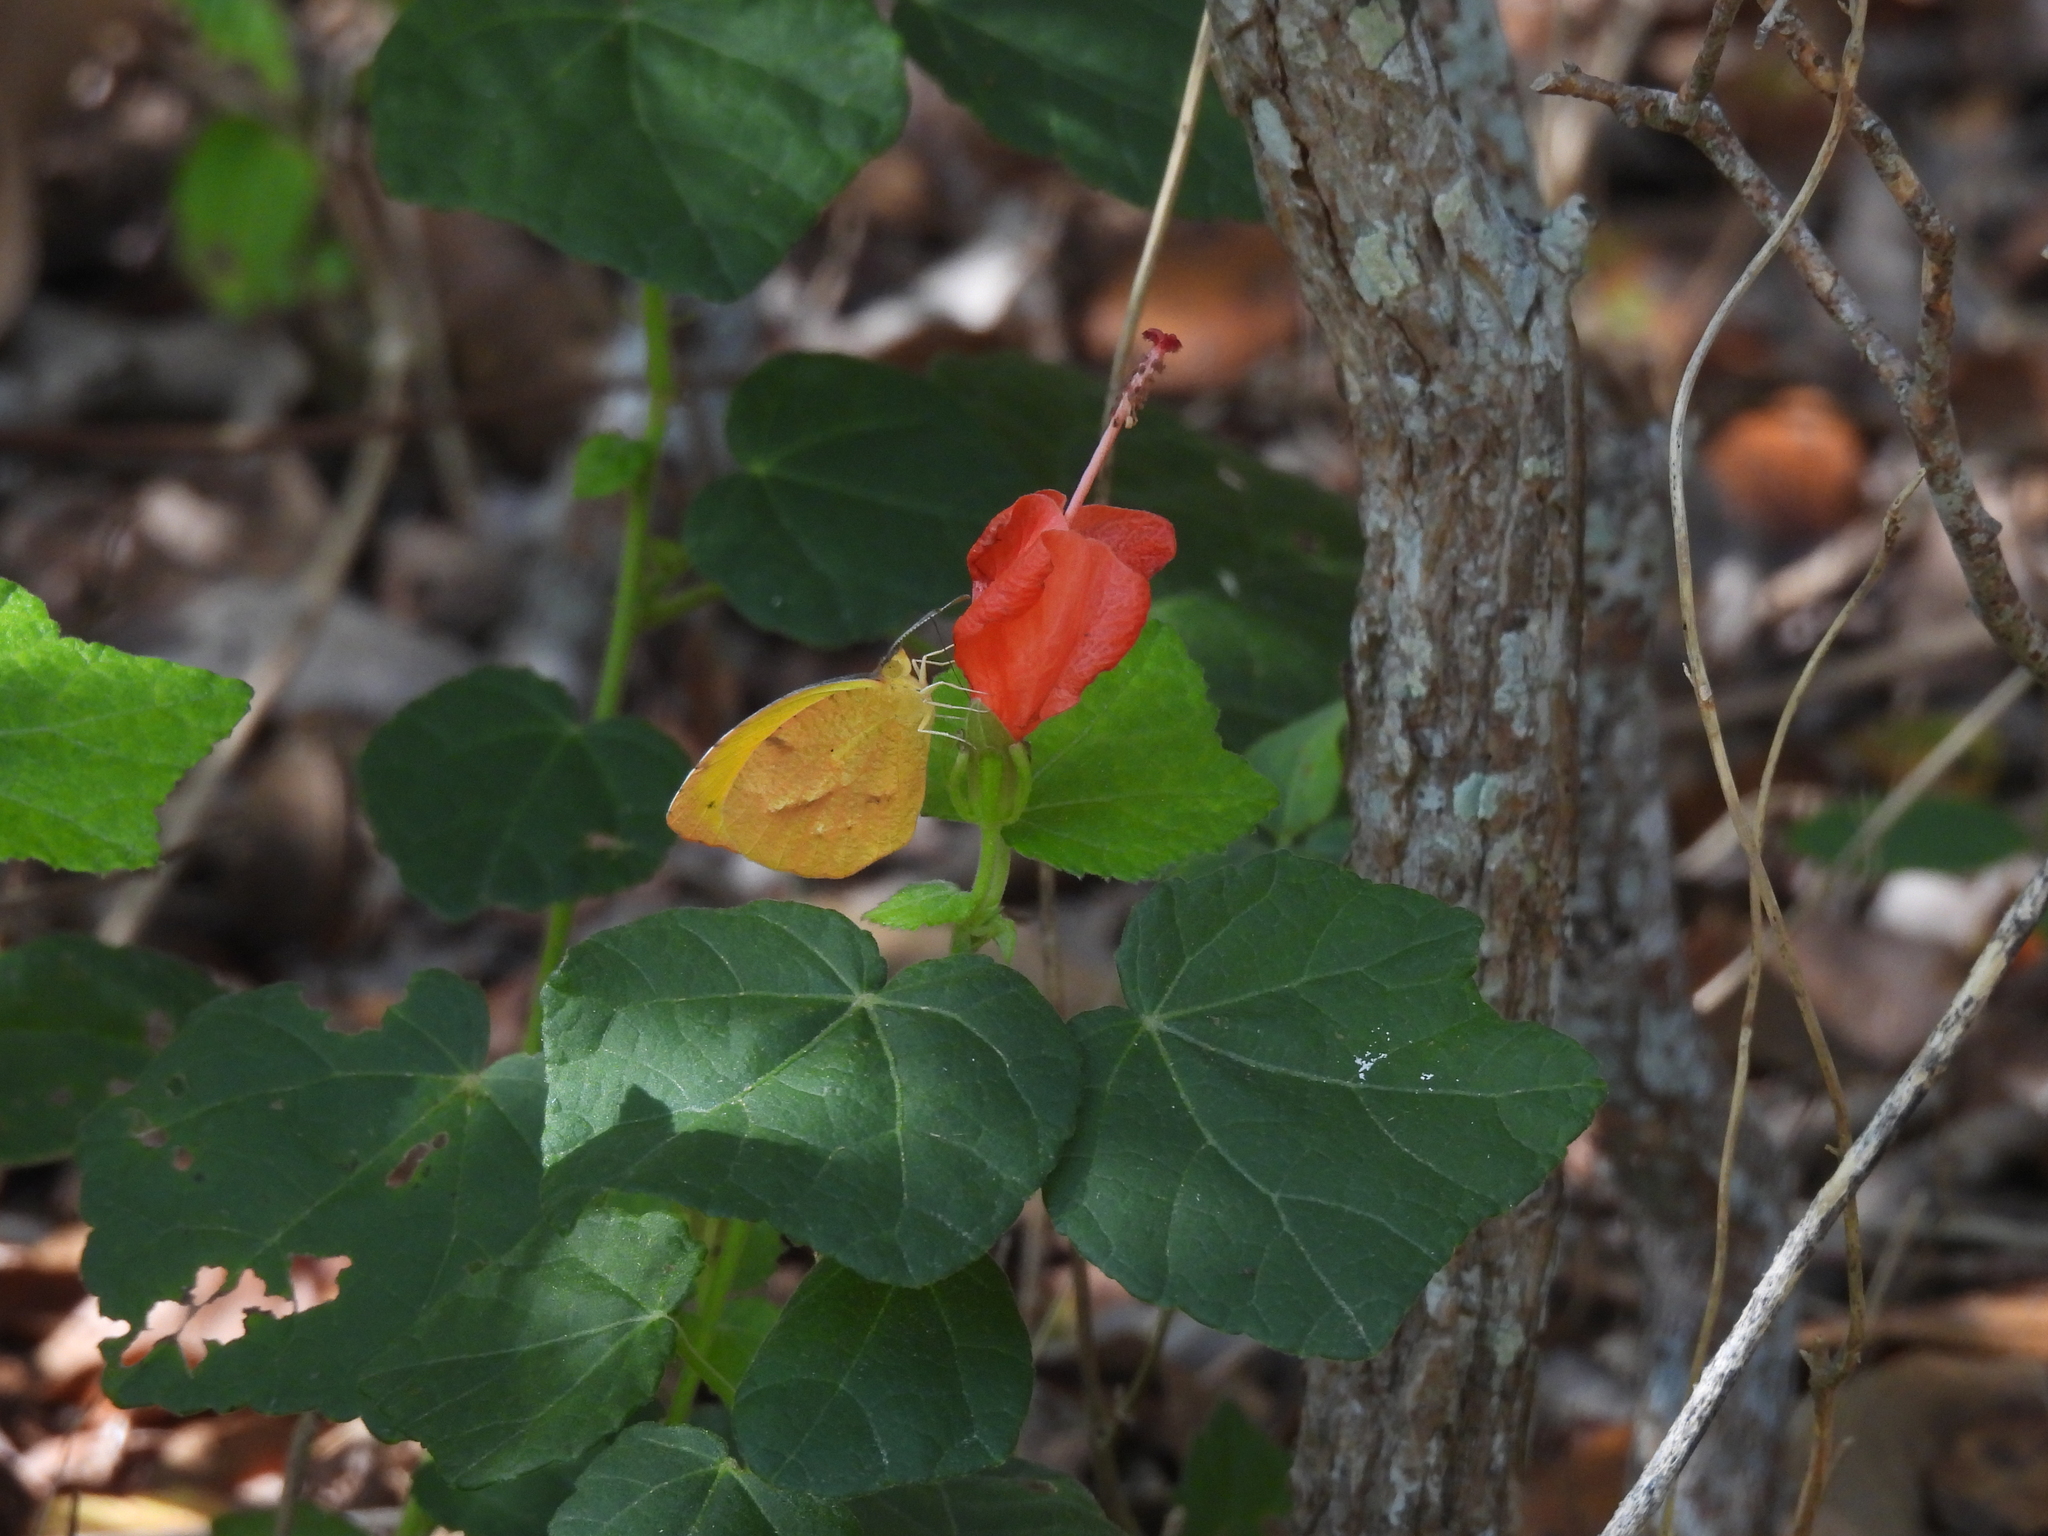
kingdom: Animalia
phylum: Arthropoda
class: Insecta
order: Lepidoptera
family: Pieridae
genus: Abaeis
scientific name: Abaeis nicippe
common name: Sleepy orange
